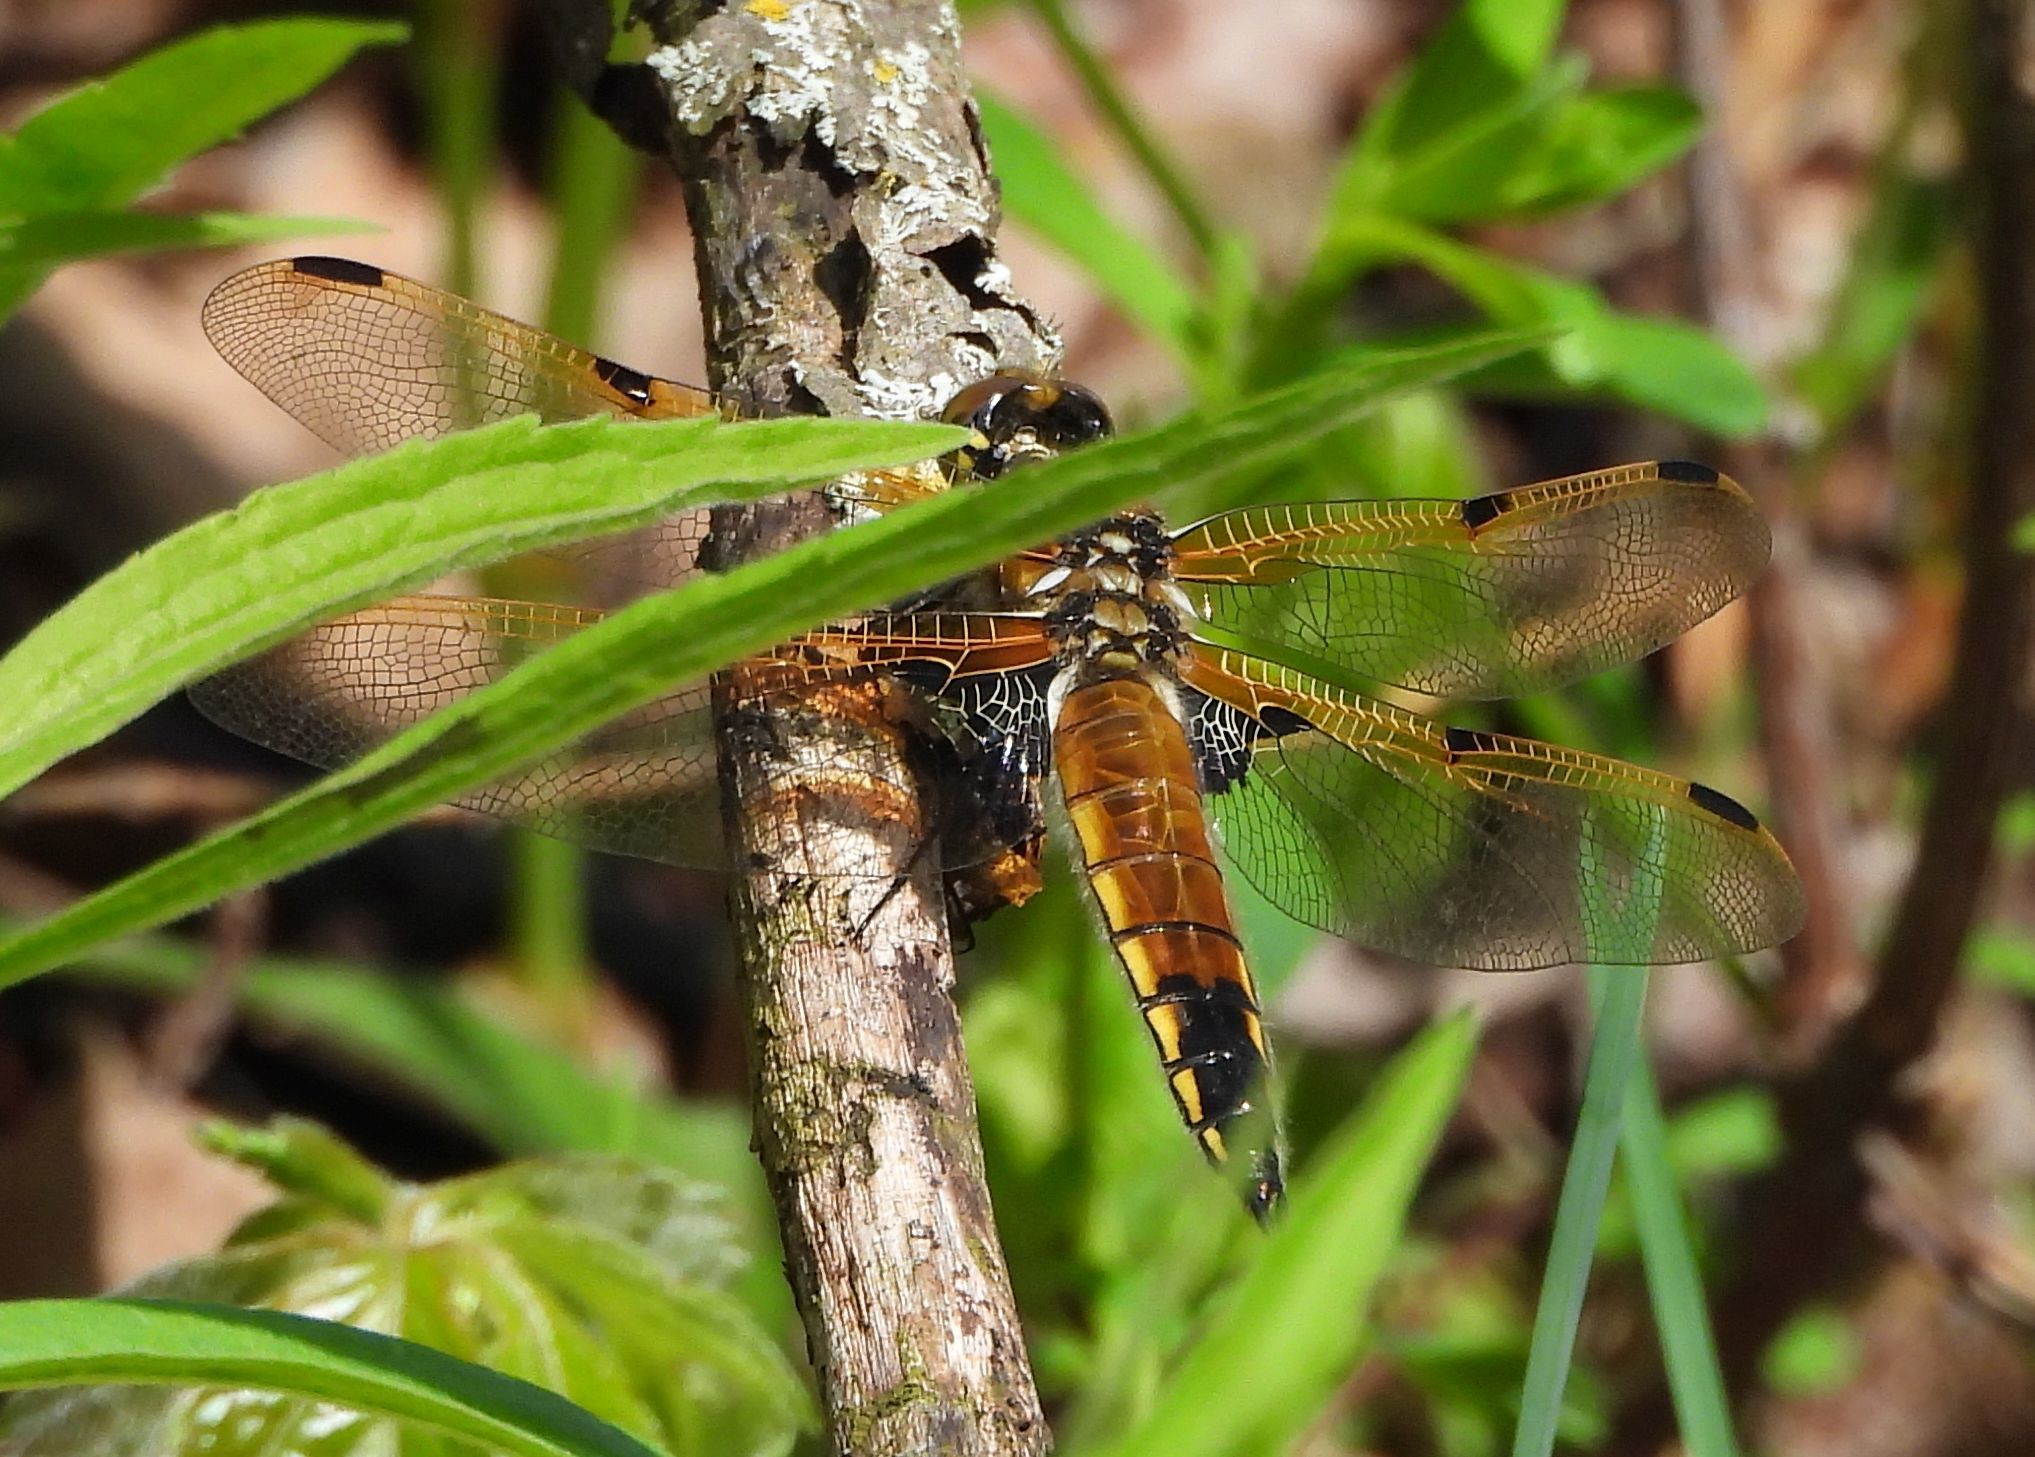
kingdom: Animalia
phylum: Arthropoda
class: Insecta
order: Odonata
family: Libellulidae
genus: Libellula
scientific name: Libellula quadrimaculata
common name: Four-spotted chaser
